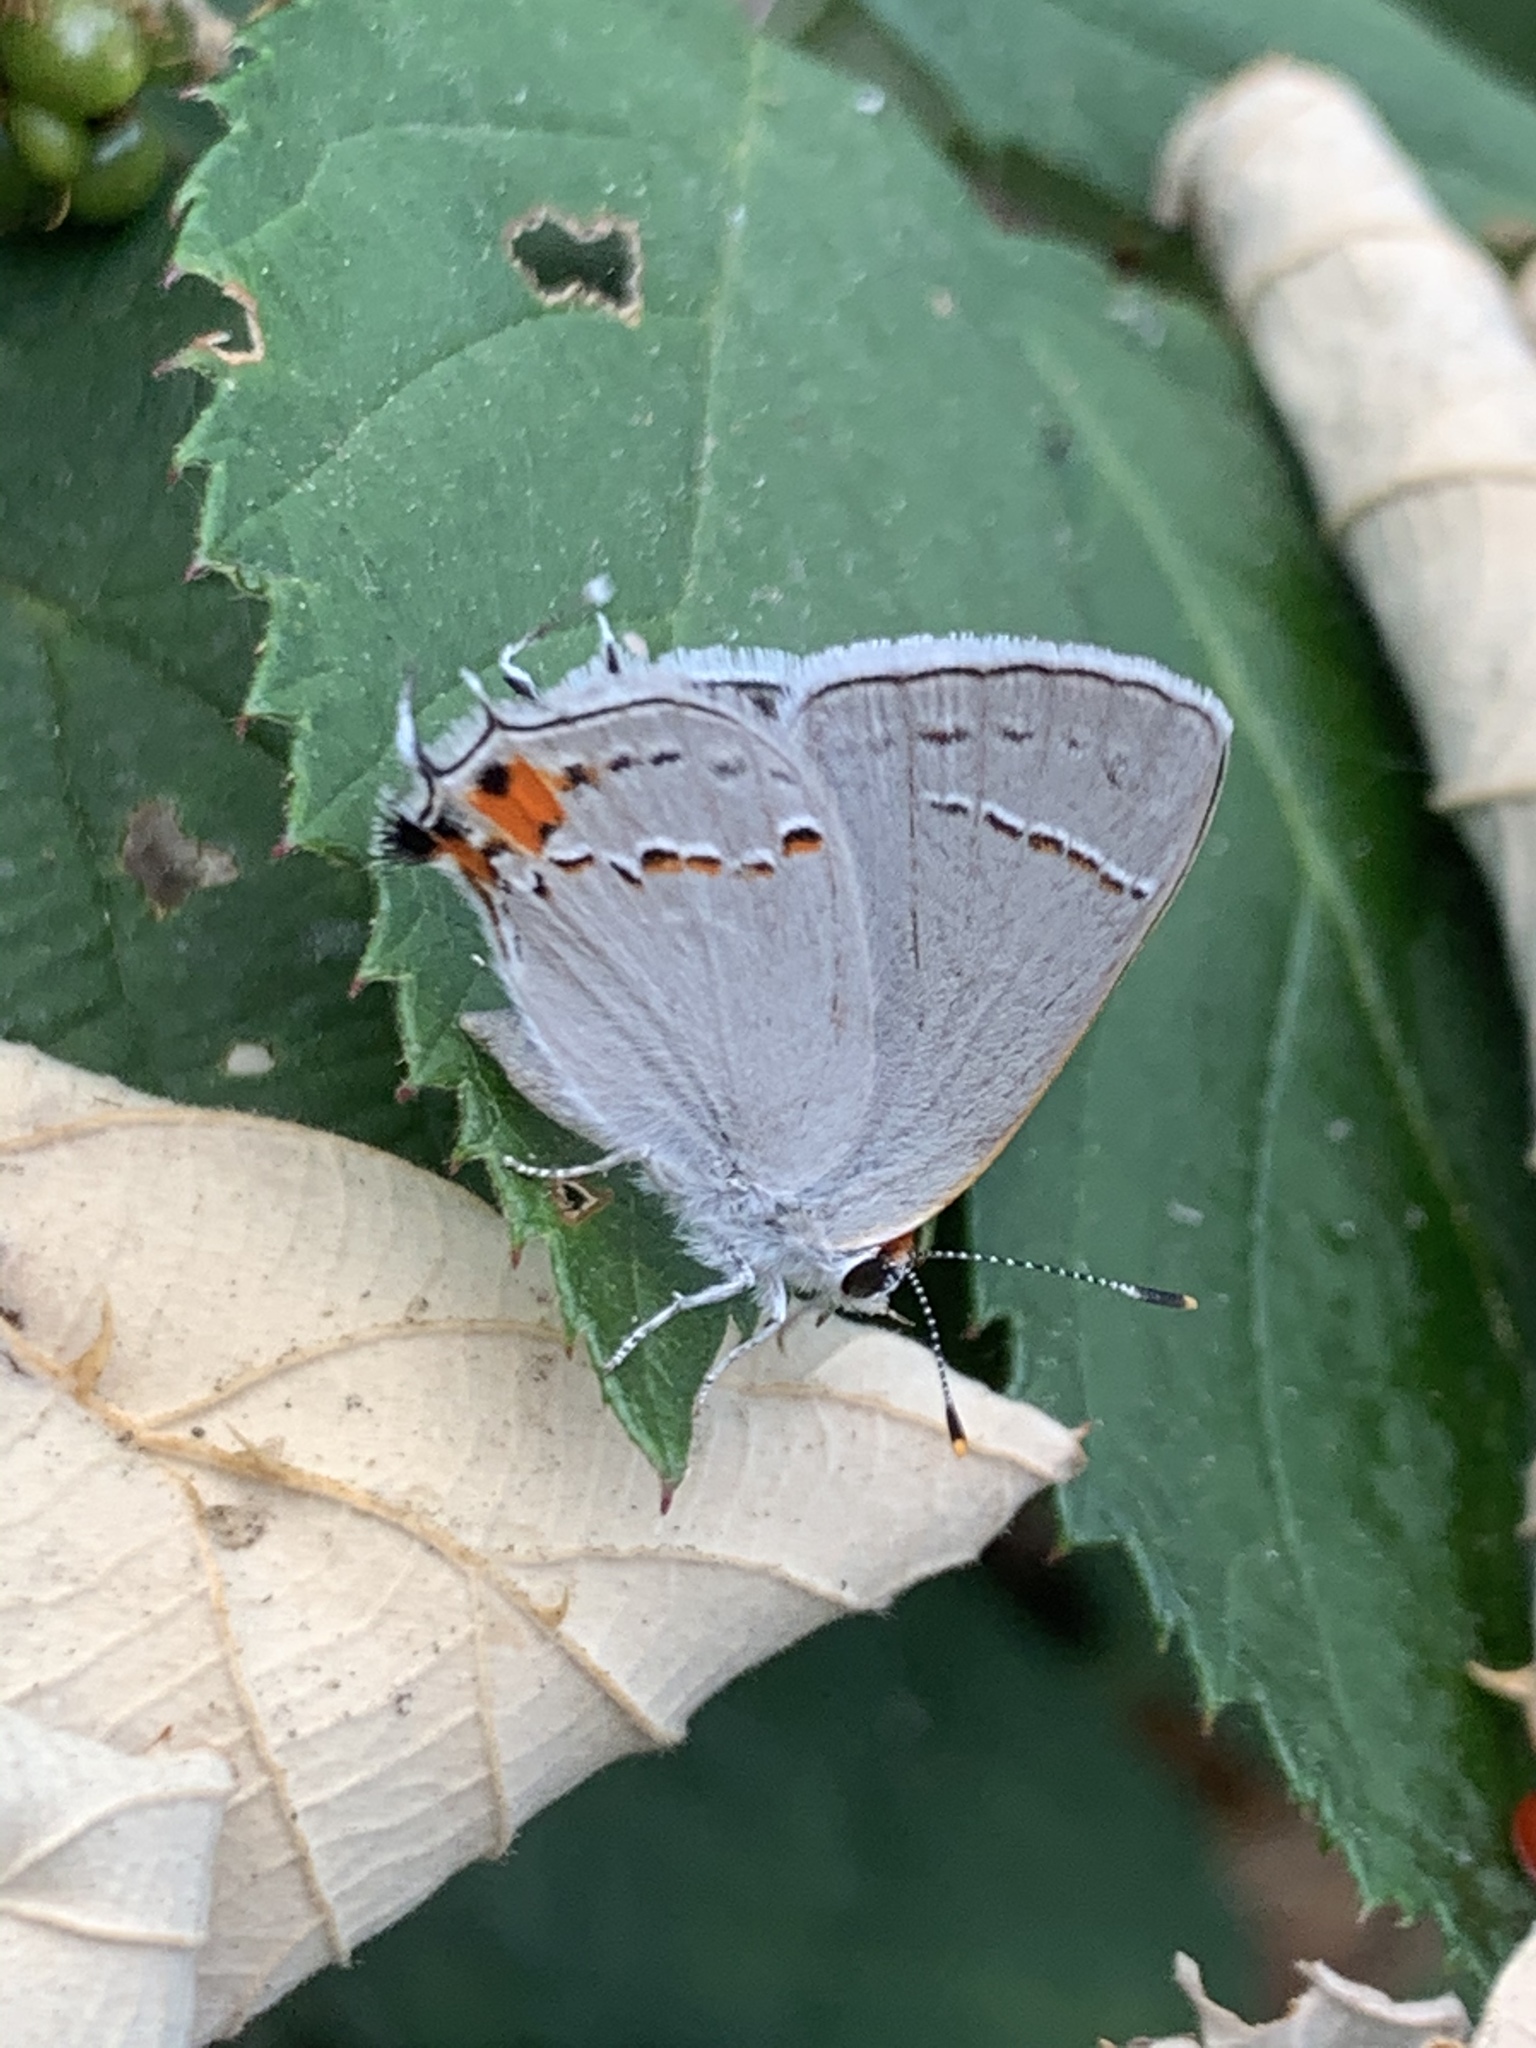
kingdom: Animalia
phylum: Arthropoda
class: Insecta
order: Lepidoptera
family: Lycaenidae
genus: Strymon
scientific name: Strymon melinus
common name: Gray hairstreak
